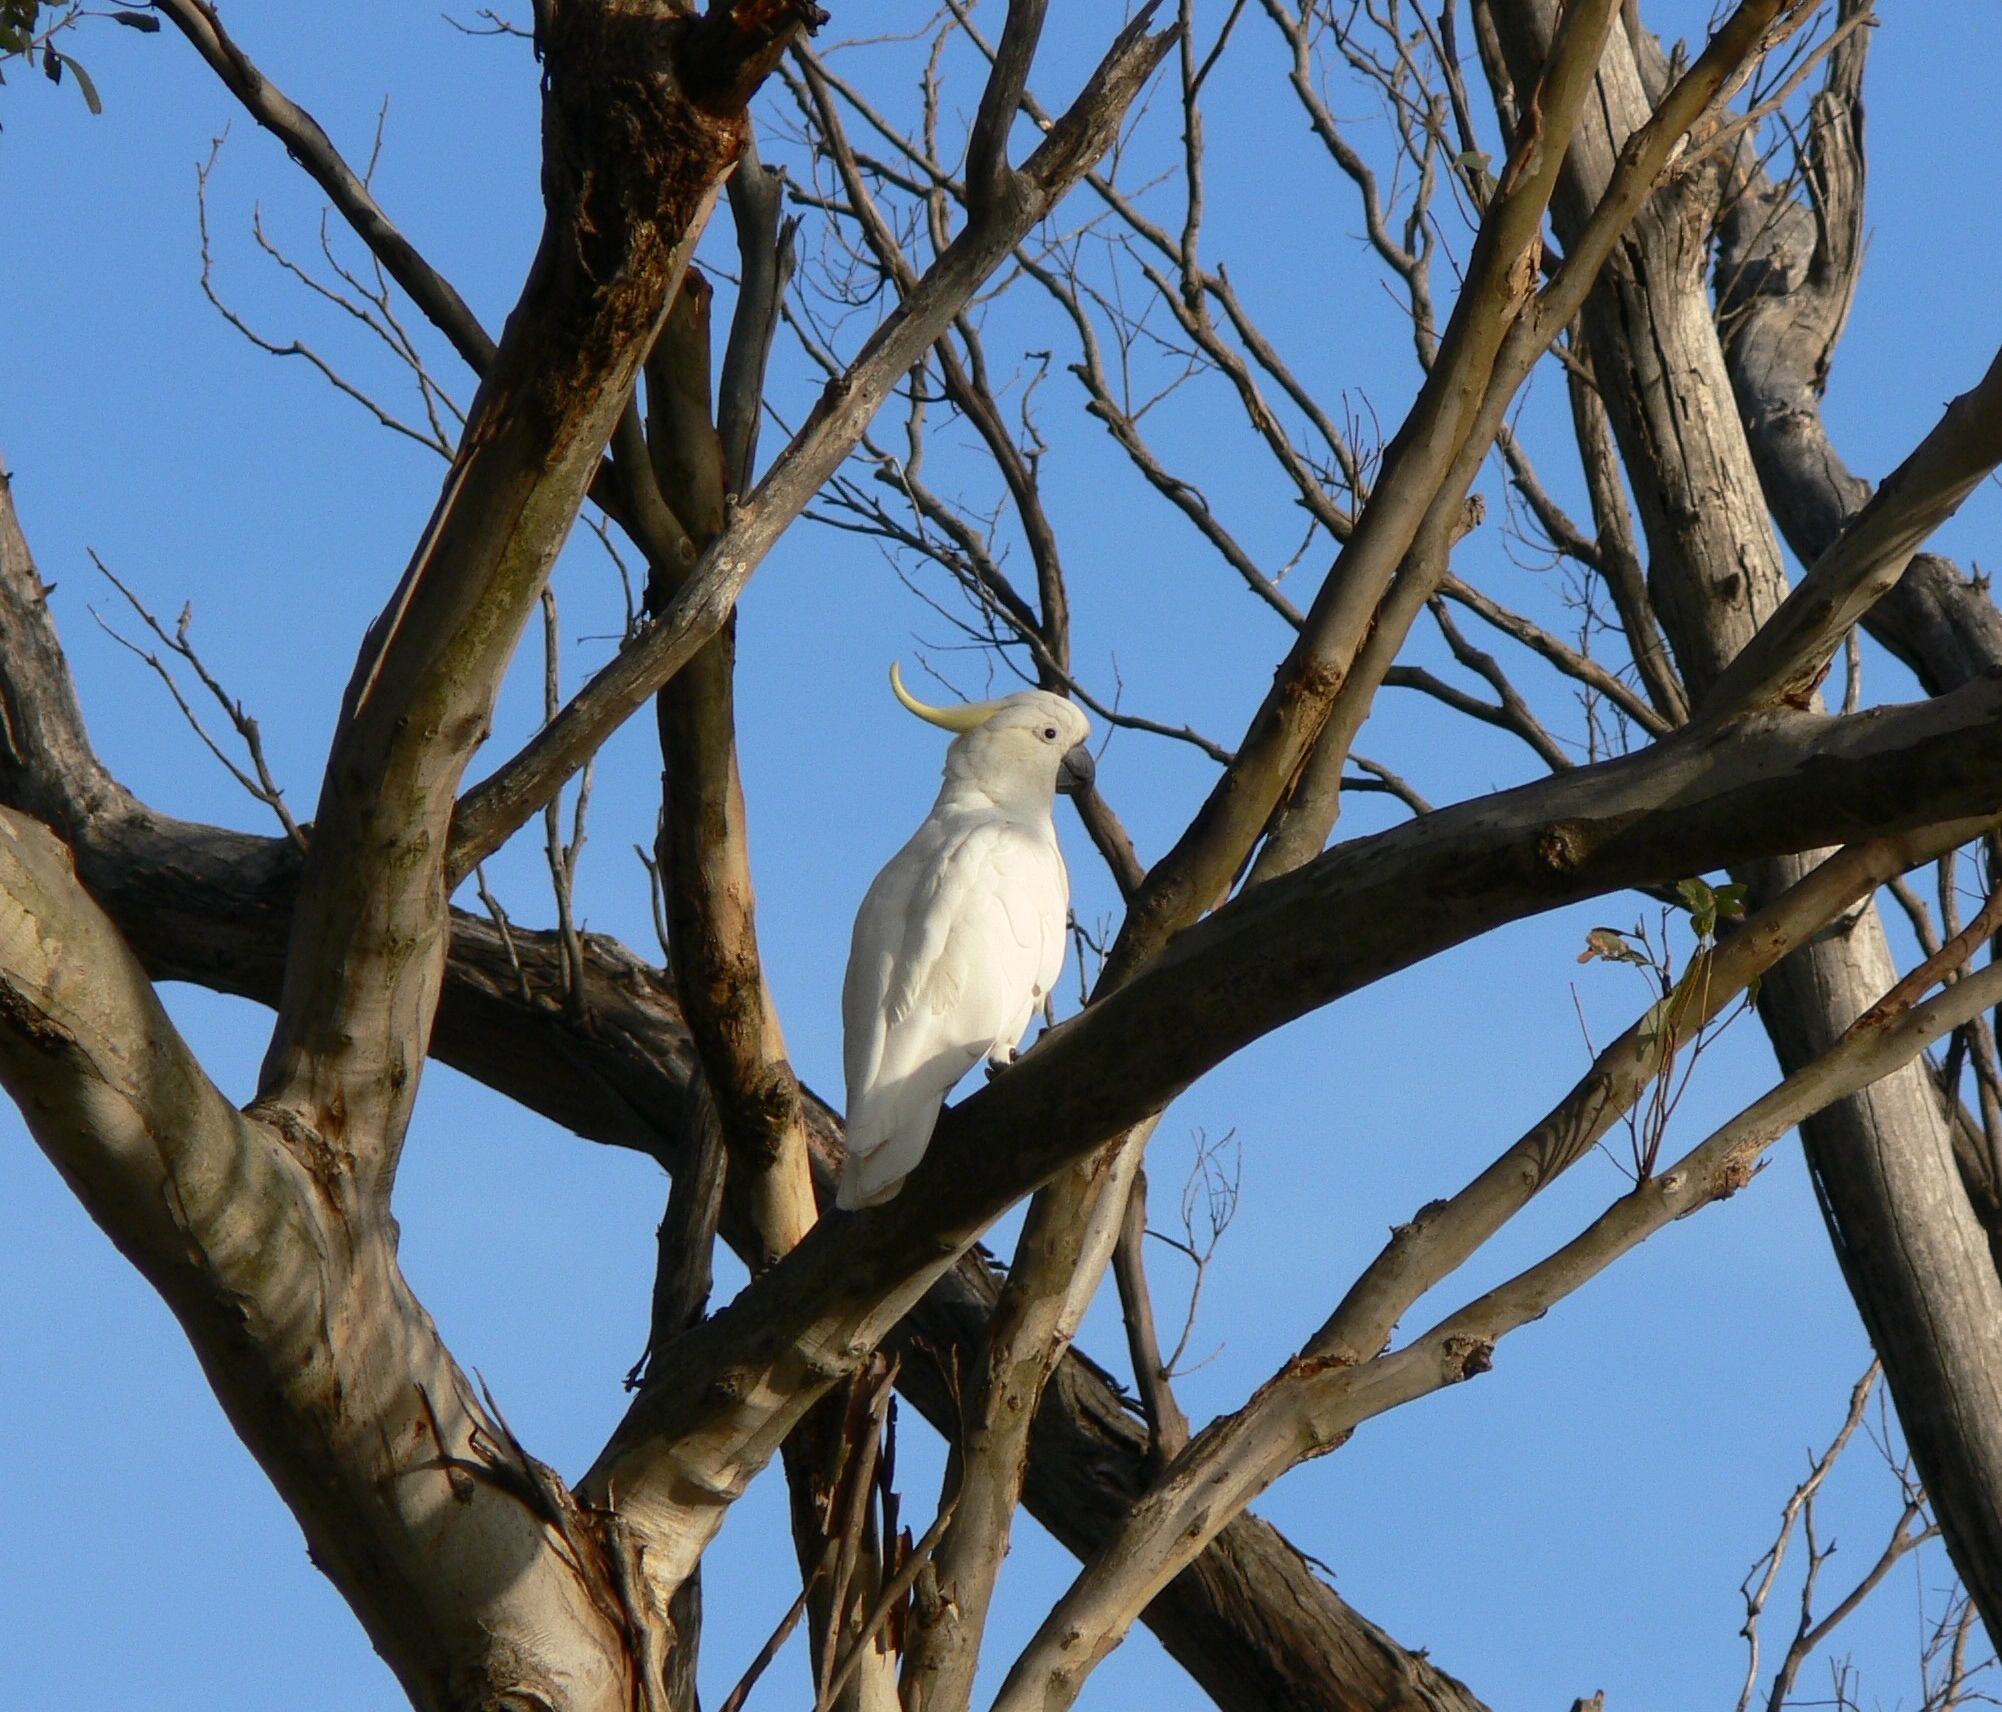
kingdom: Animalia
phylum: Chordata
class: Aves
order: Psittaciformes
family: Psittacidae
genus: Cacatua
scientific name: Cacatua galerita
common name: Sulphur-crested cockatoo
